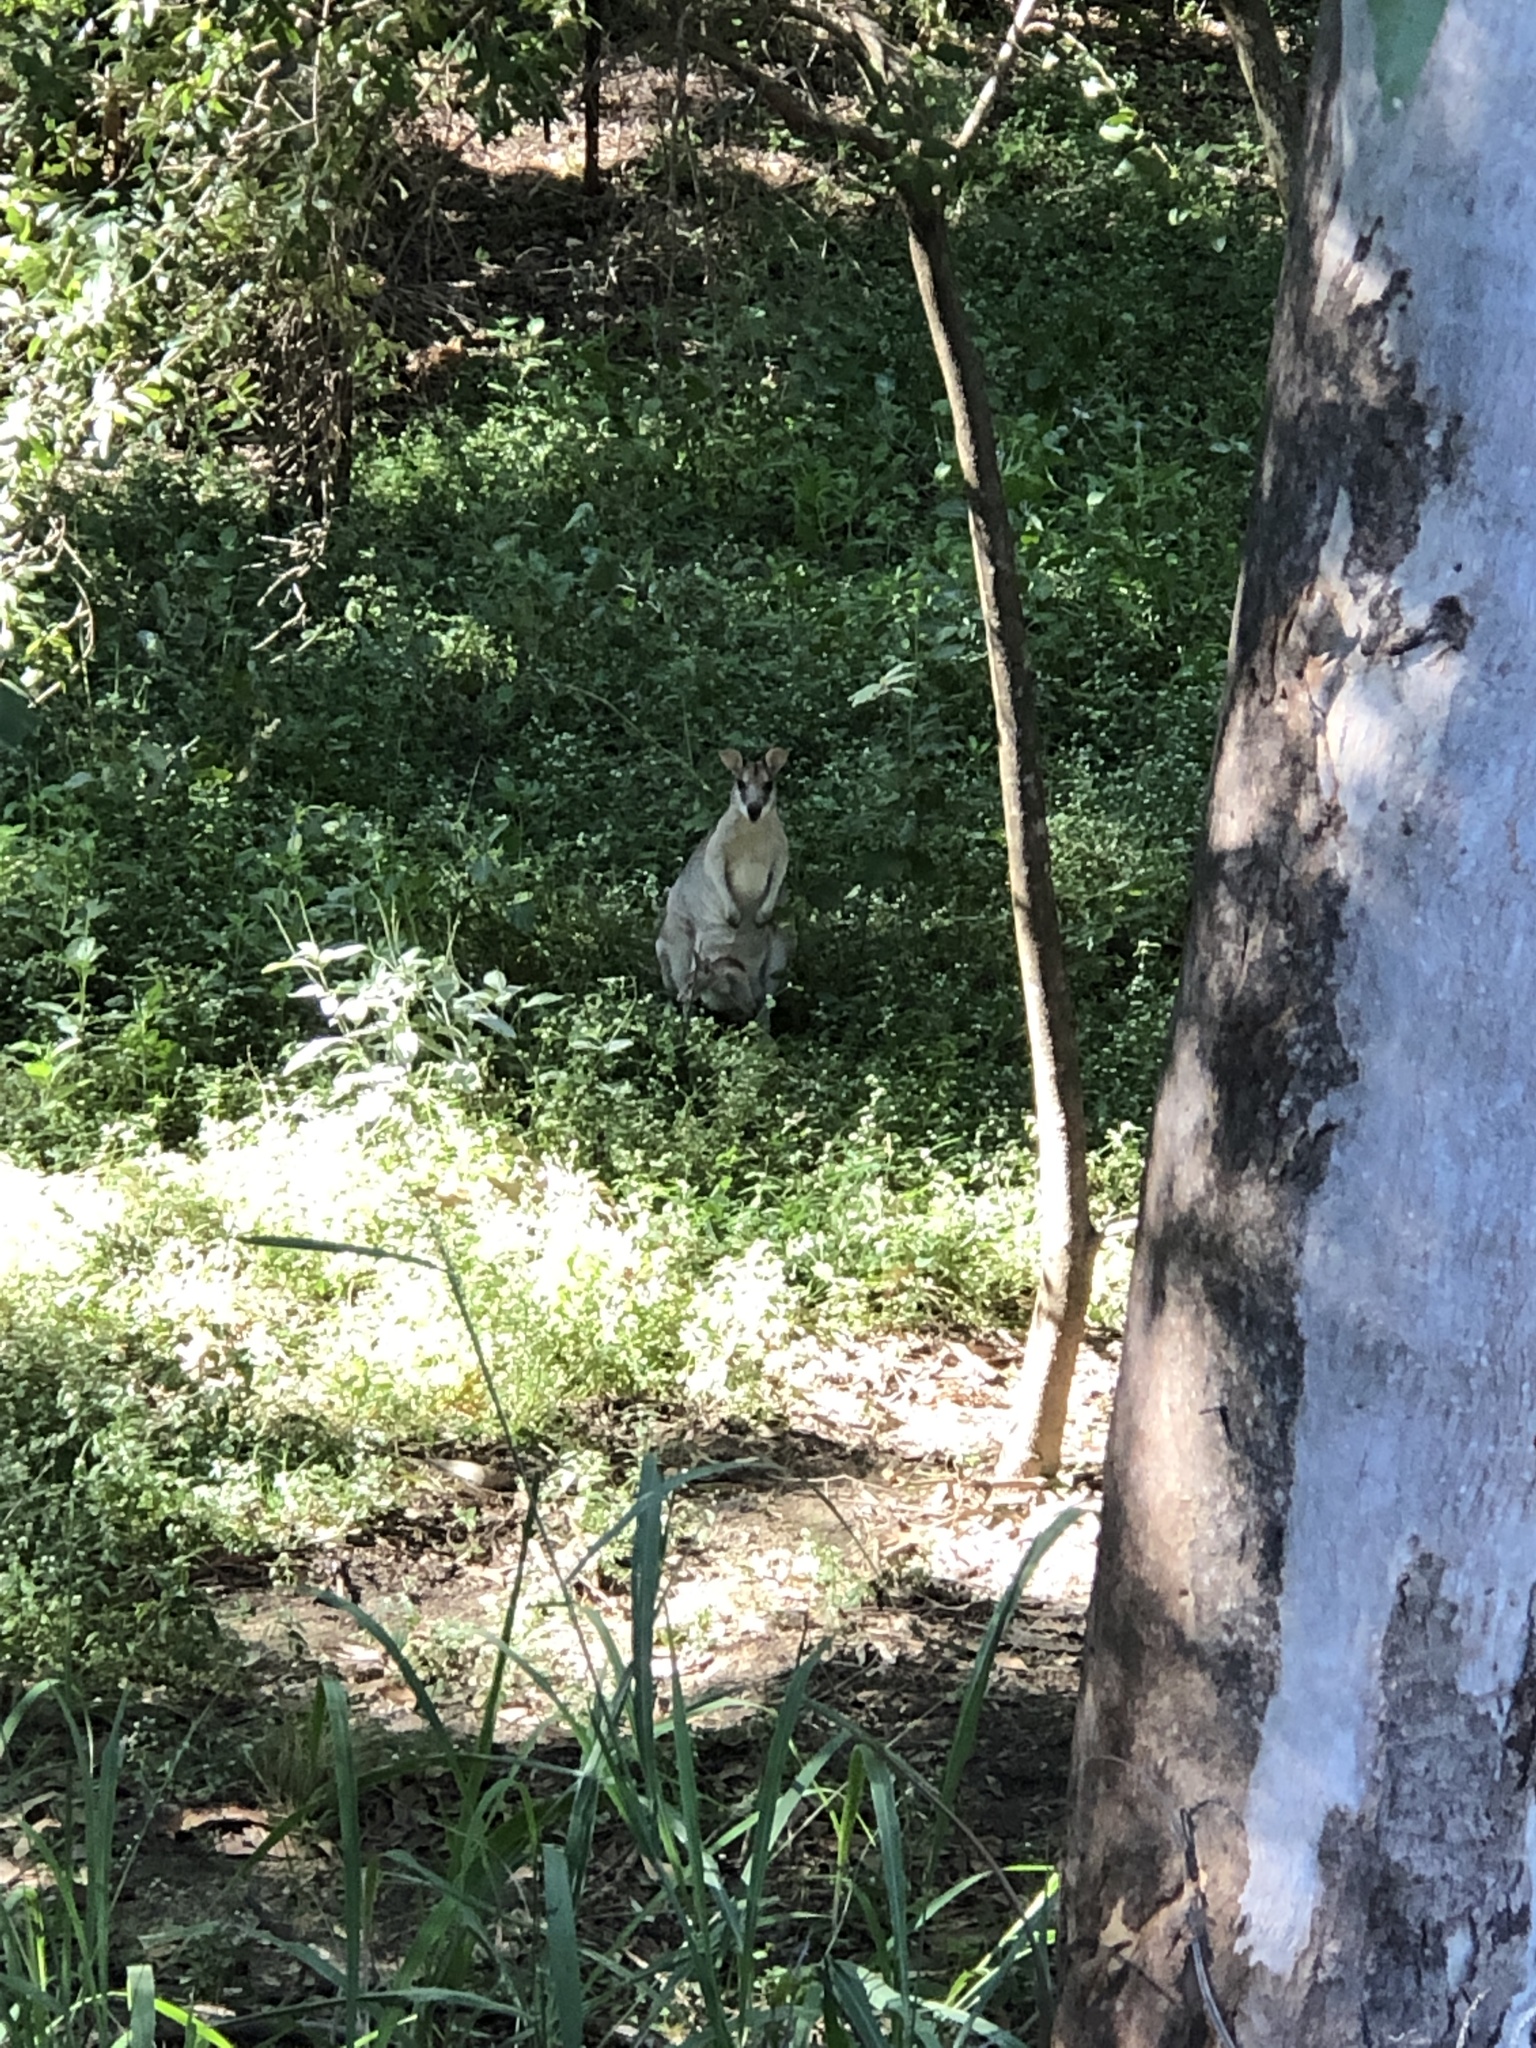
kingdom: Animalia
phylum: Chordata
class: Mammalia
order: Diprotodontia
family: Macropodidae
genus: Macropus
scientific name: Macropus agilis
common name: Agile wallaby
